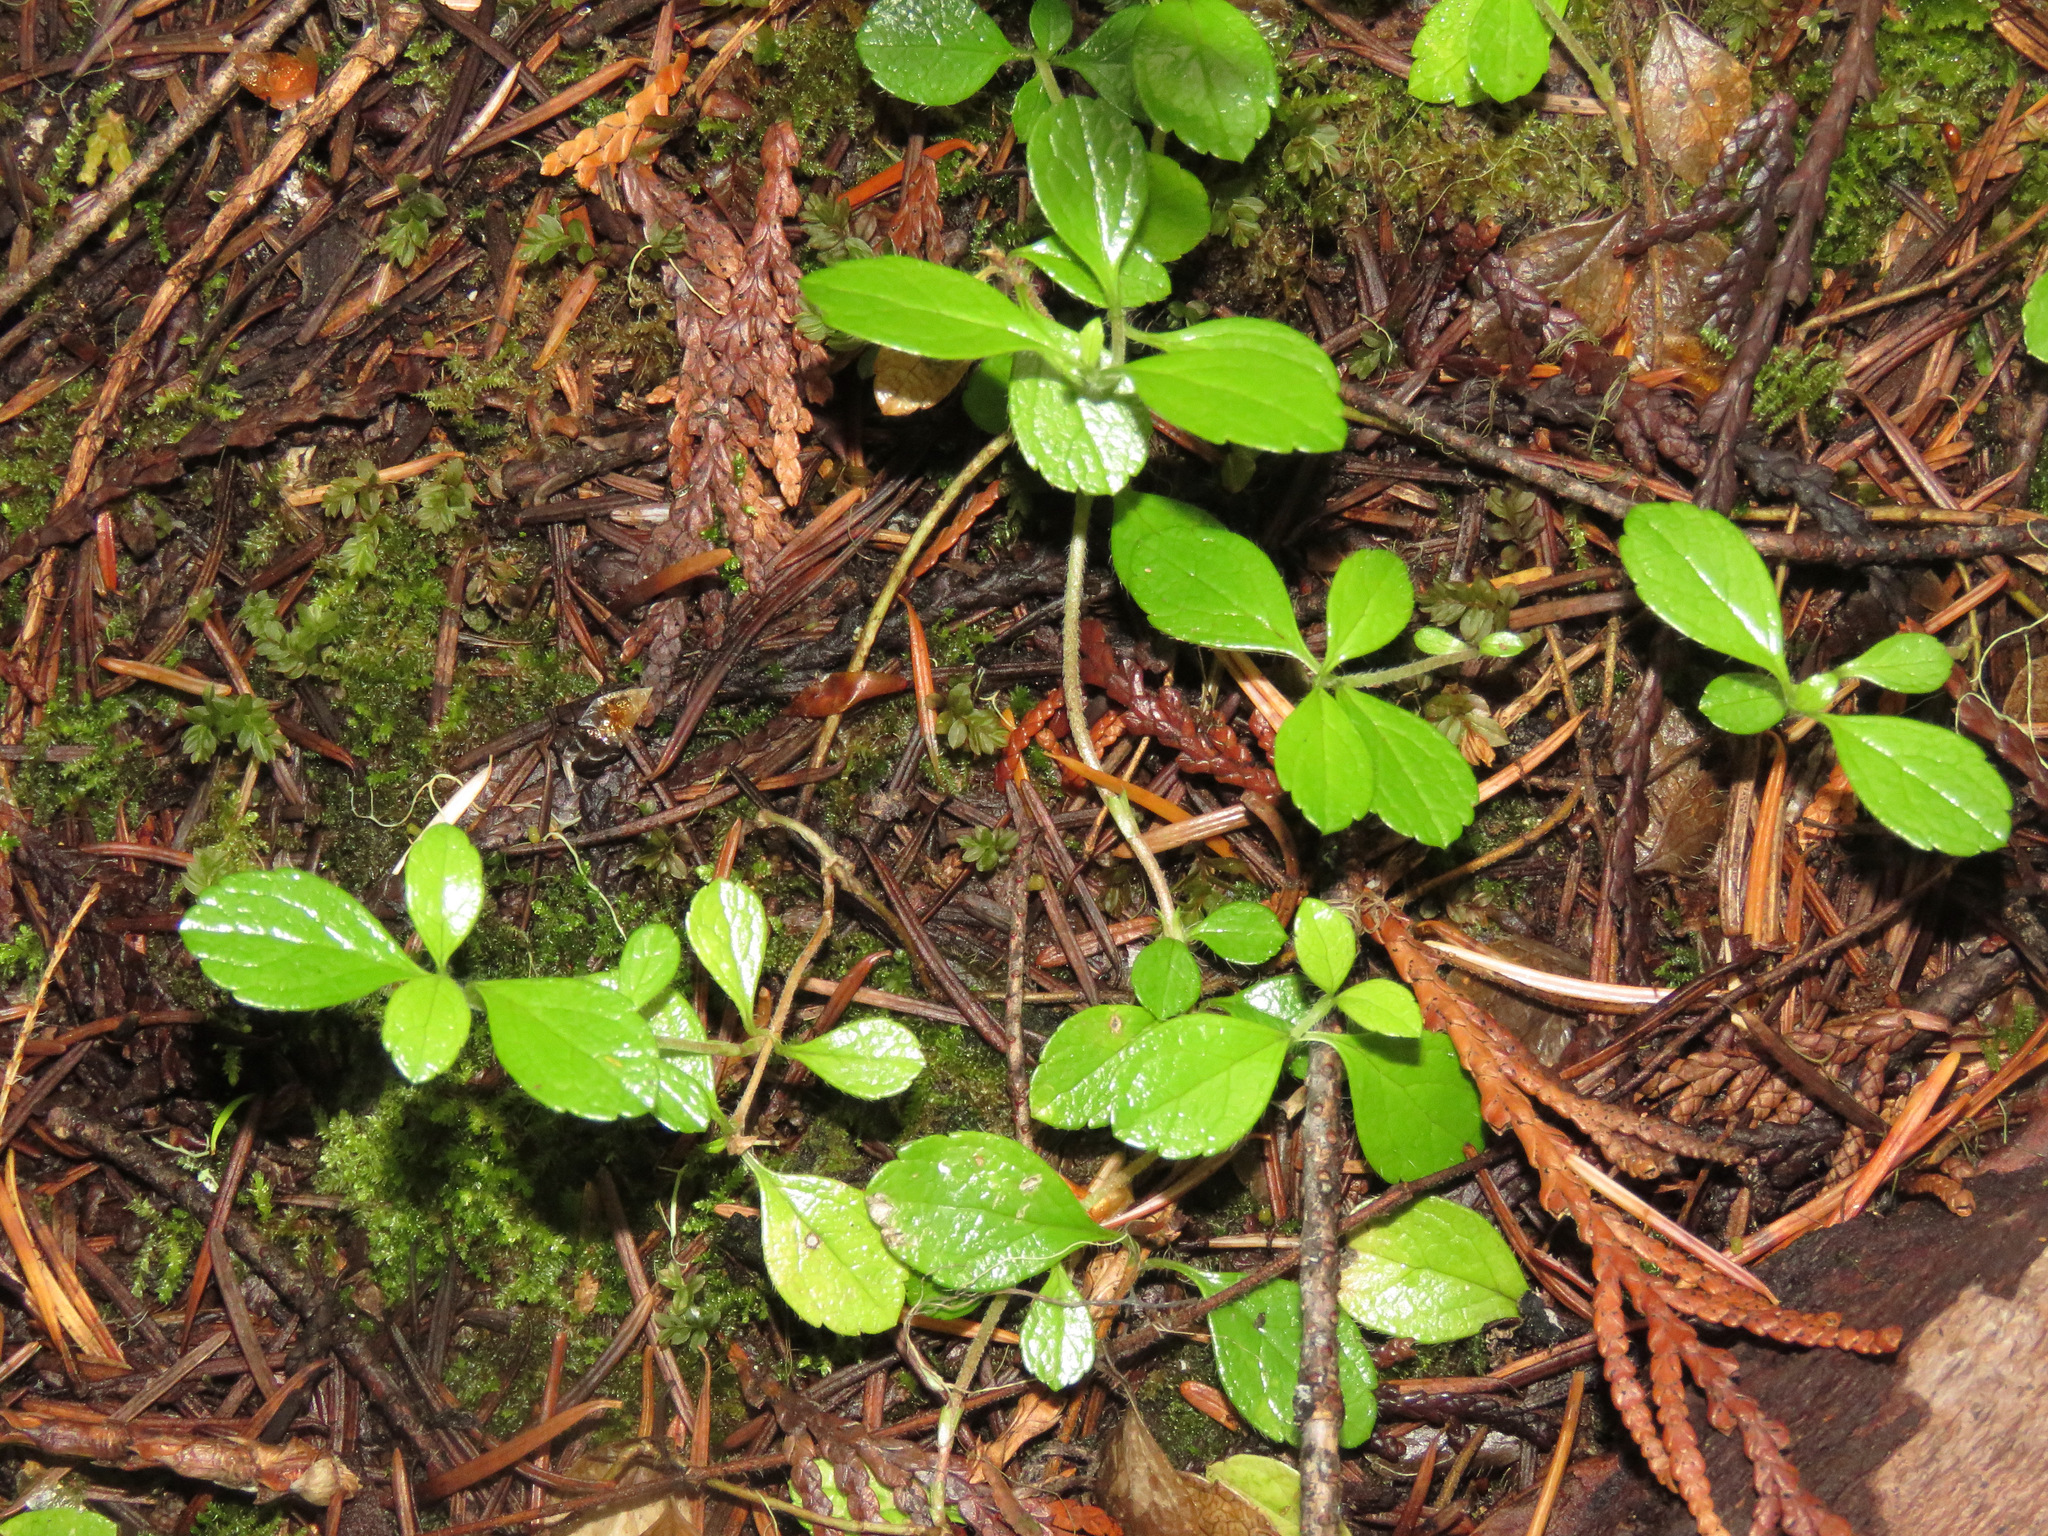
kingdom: Plantae
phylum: Tracheophyta
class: Magnoliopsida
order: Dipsacales
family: Caprifoliaceae
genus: Linnaea
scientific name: Linnaea borealis
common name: Twinflower
